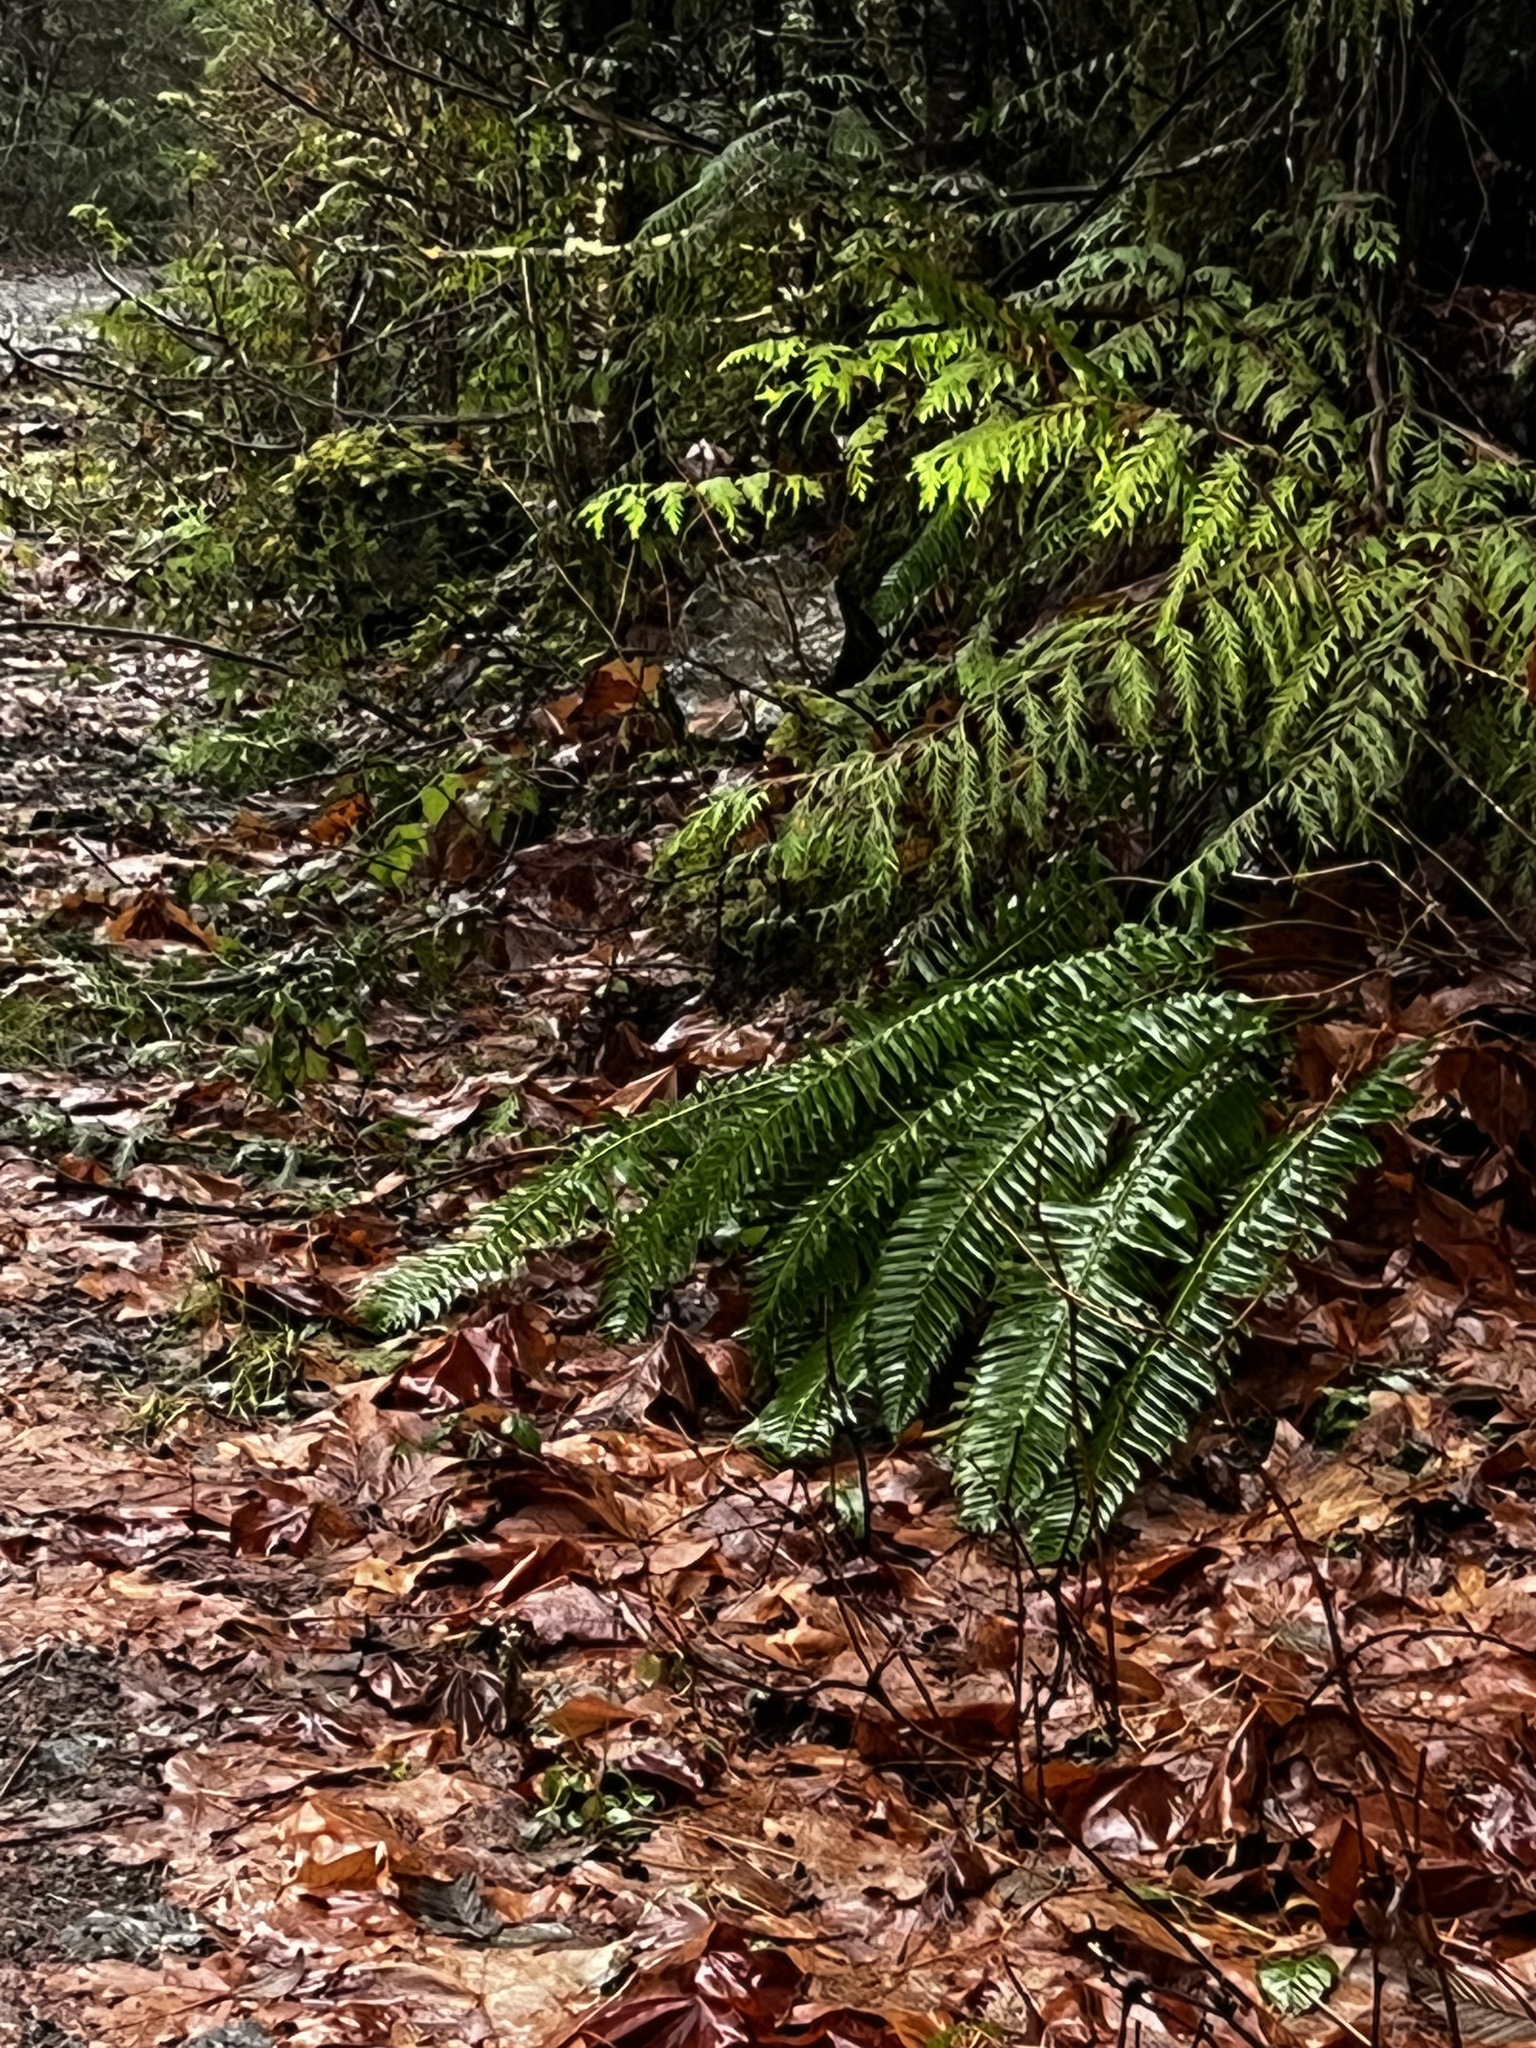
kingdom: Plantae
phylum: Tracheophyta
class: Polypodiopsida
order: Polypodiales
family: Dryopteridaceae
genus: Polystichum
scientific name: Polystichum munitum
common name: Western sword-fern
